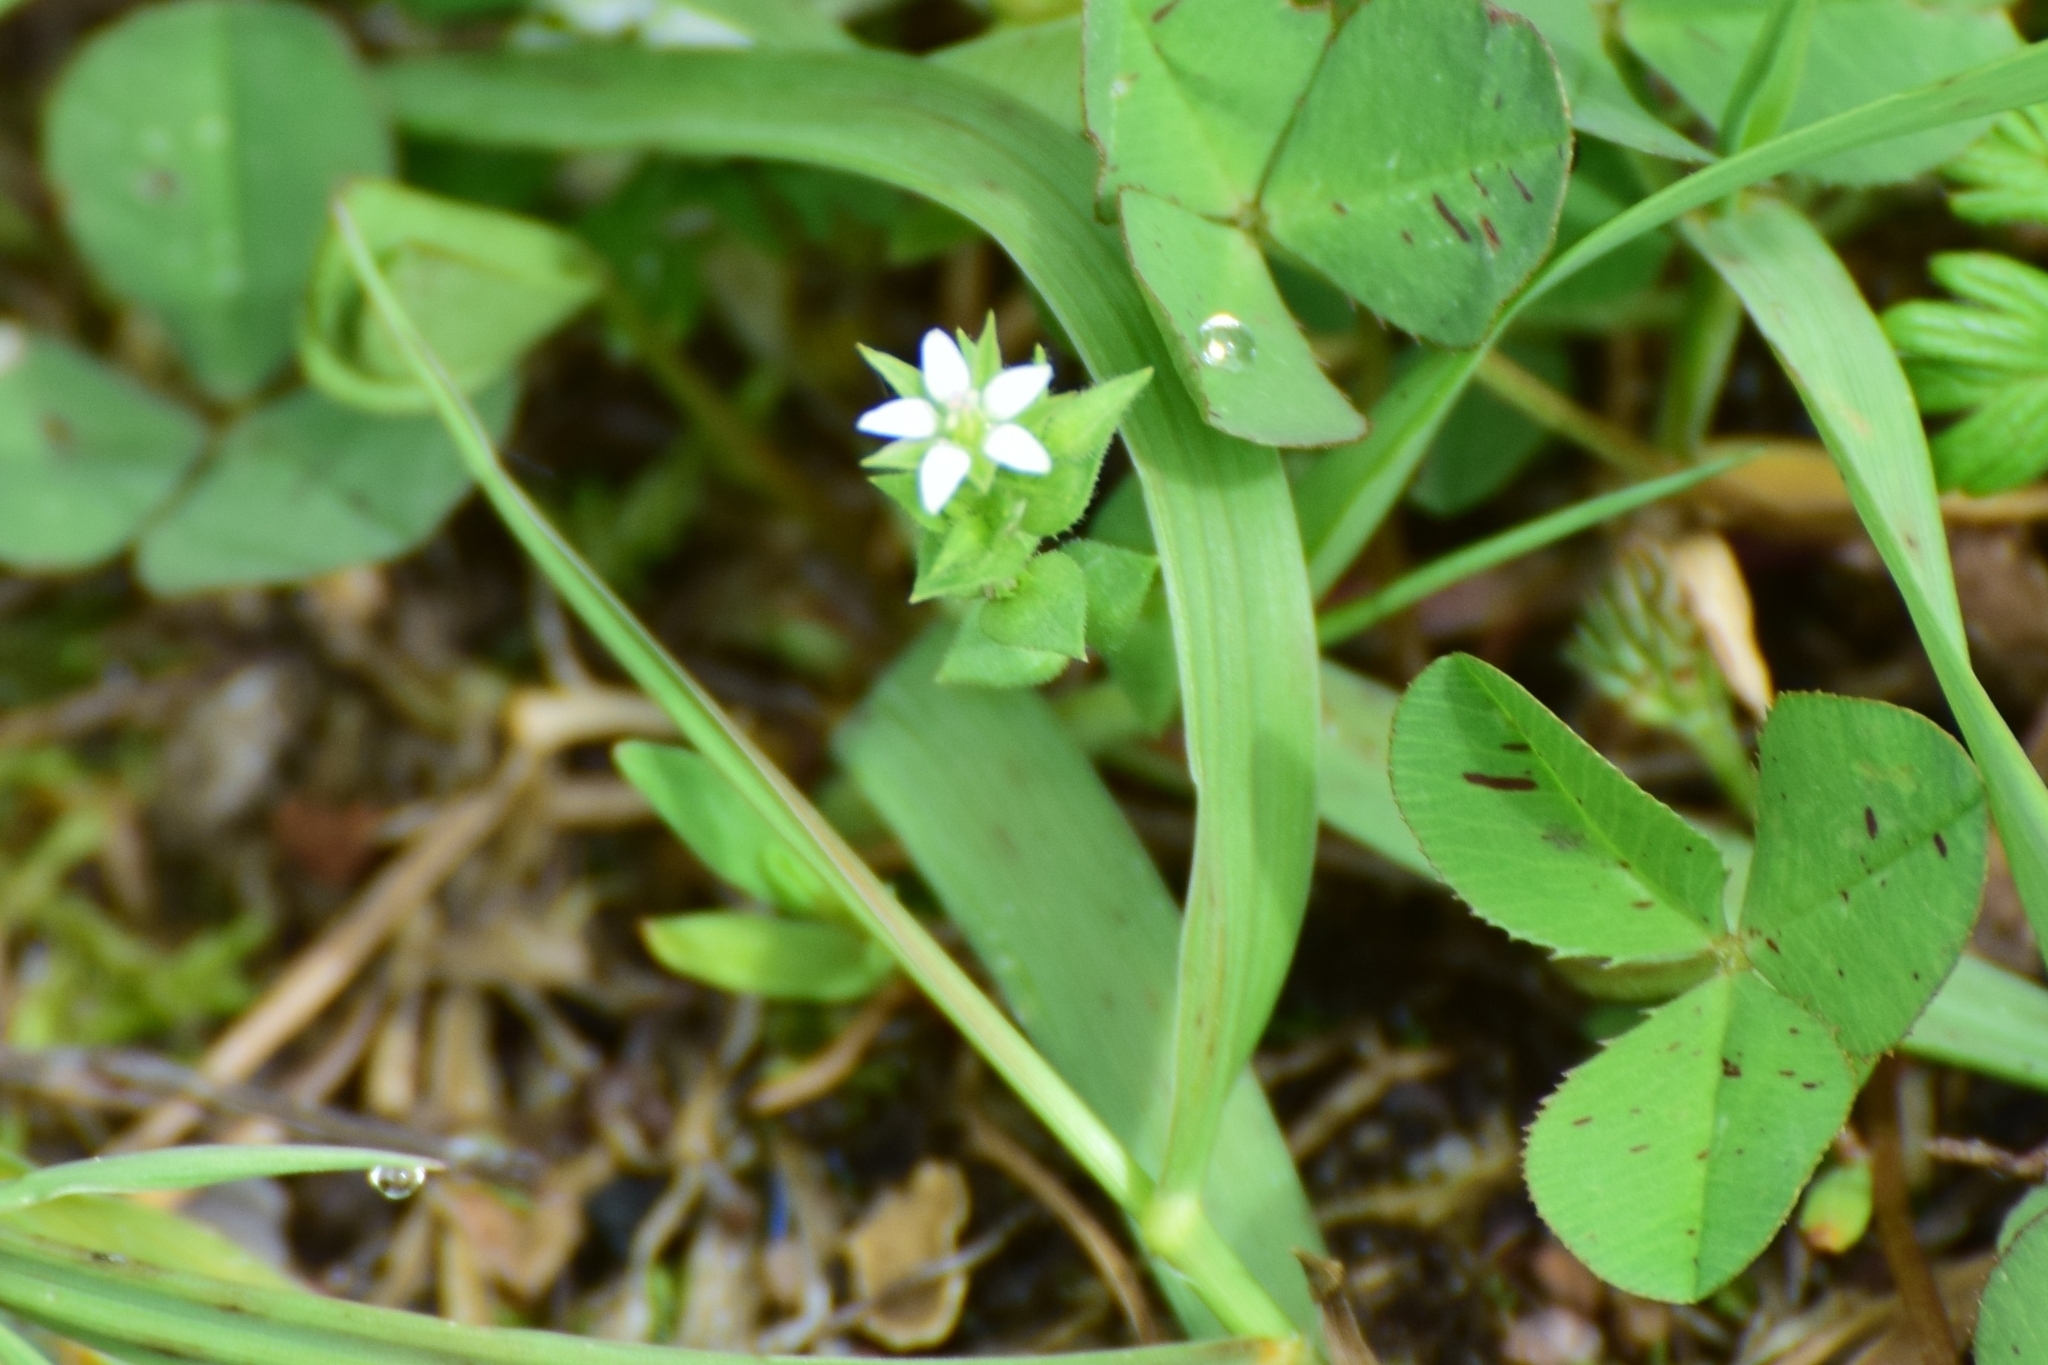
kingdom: Plantae
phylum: Tracheophyta
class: Magnoliopsida
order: Caryophyllales
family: Caryophyllaceae
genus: Arenaria
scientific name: Arenaria serpyllifolia
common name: Thyme-leaved sandwort
